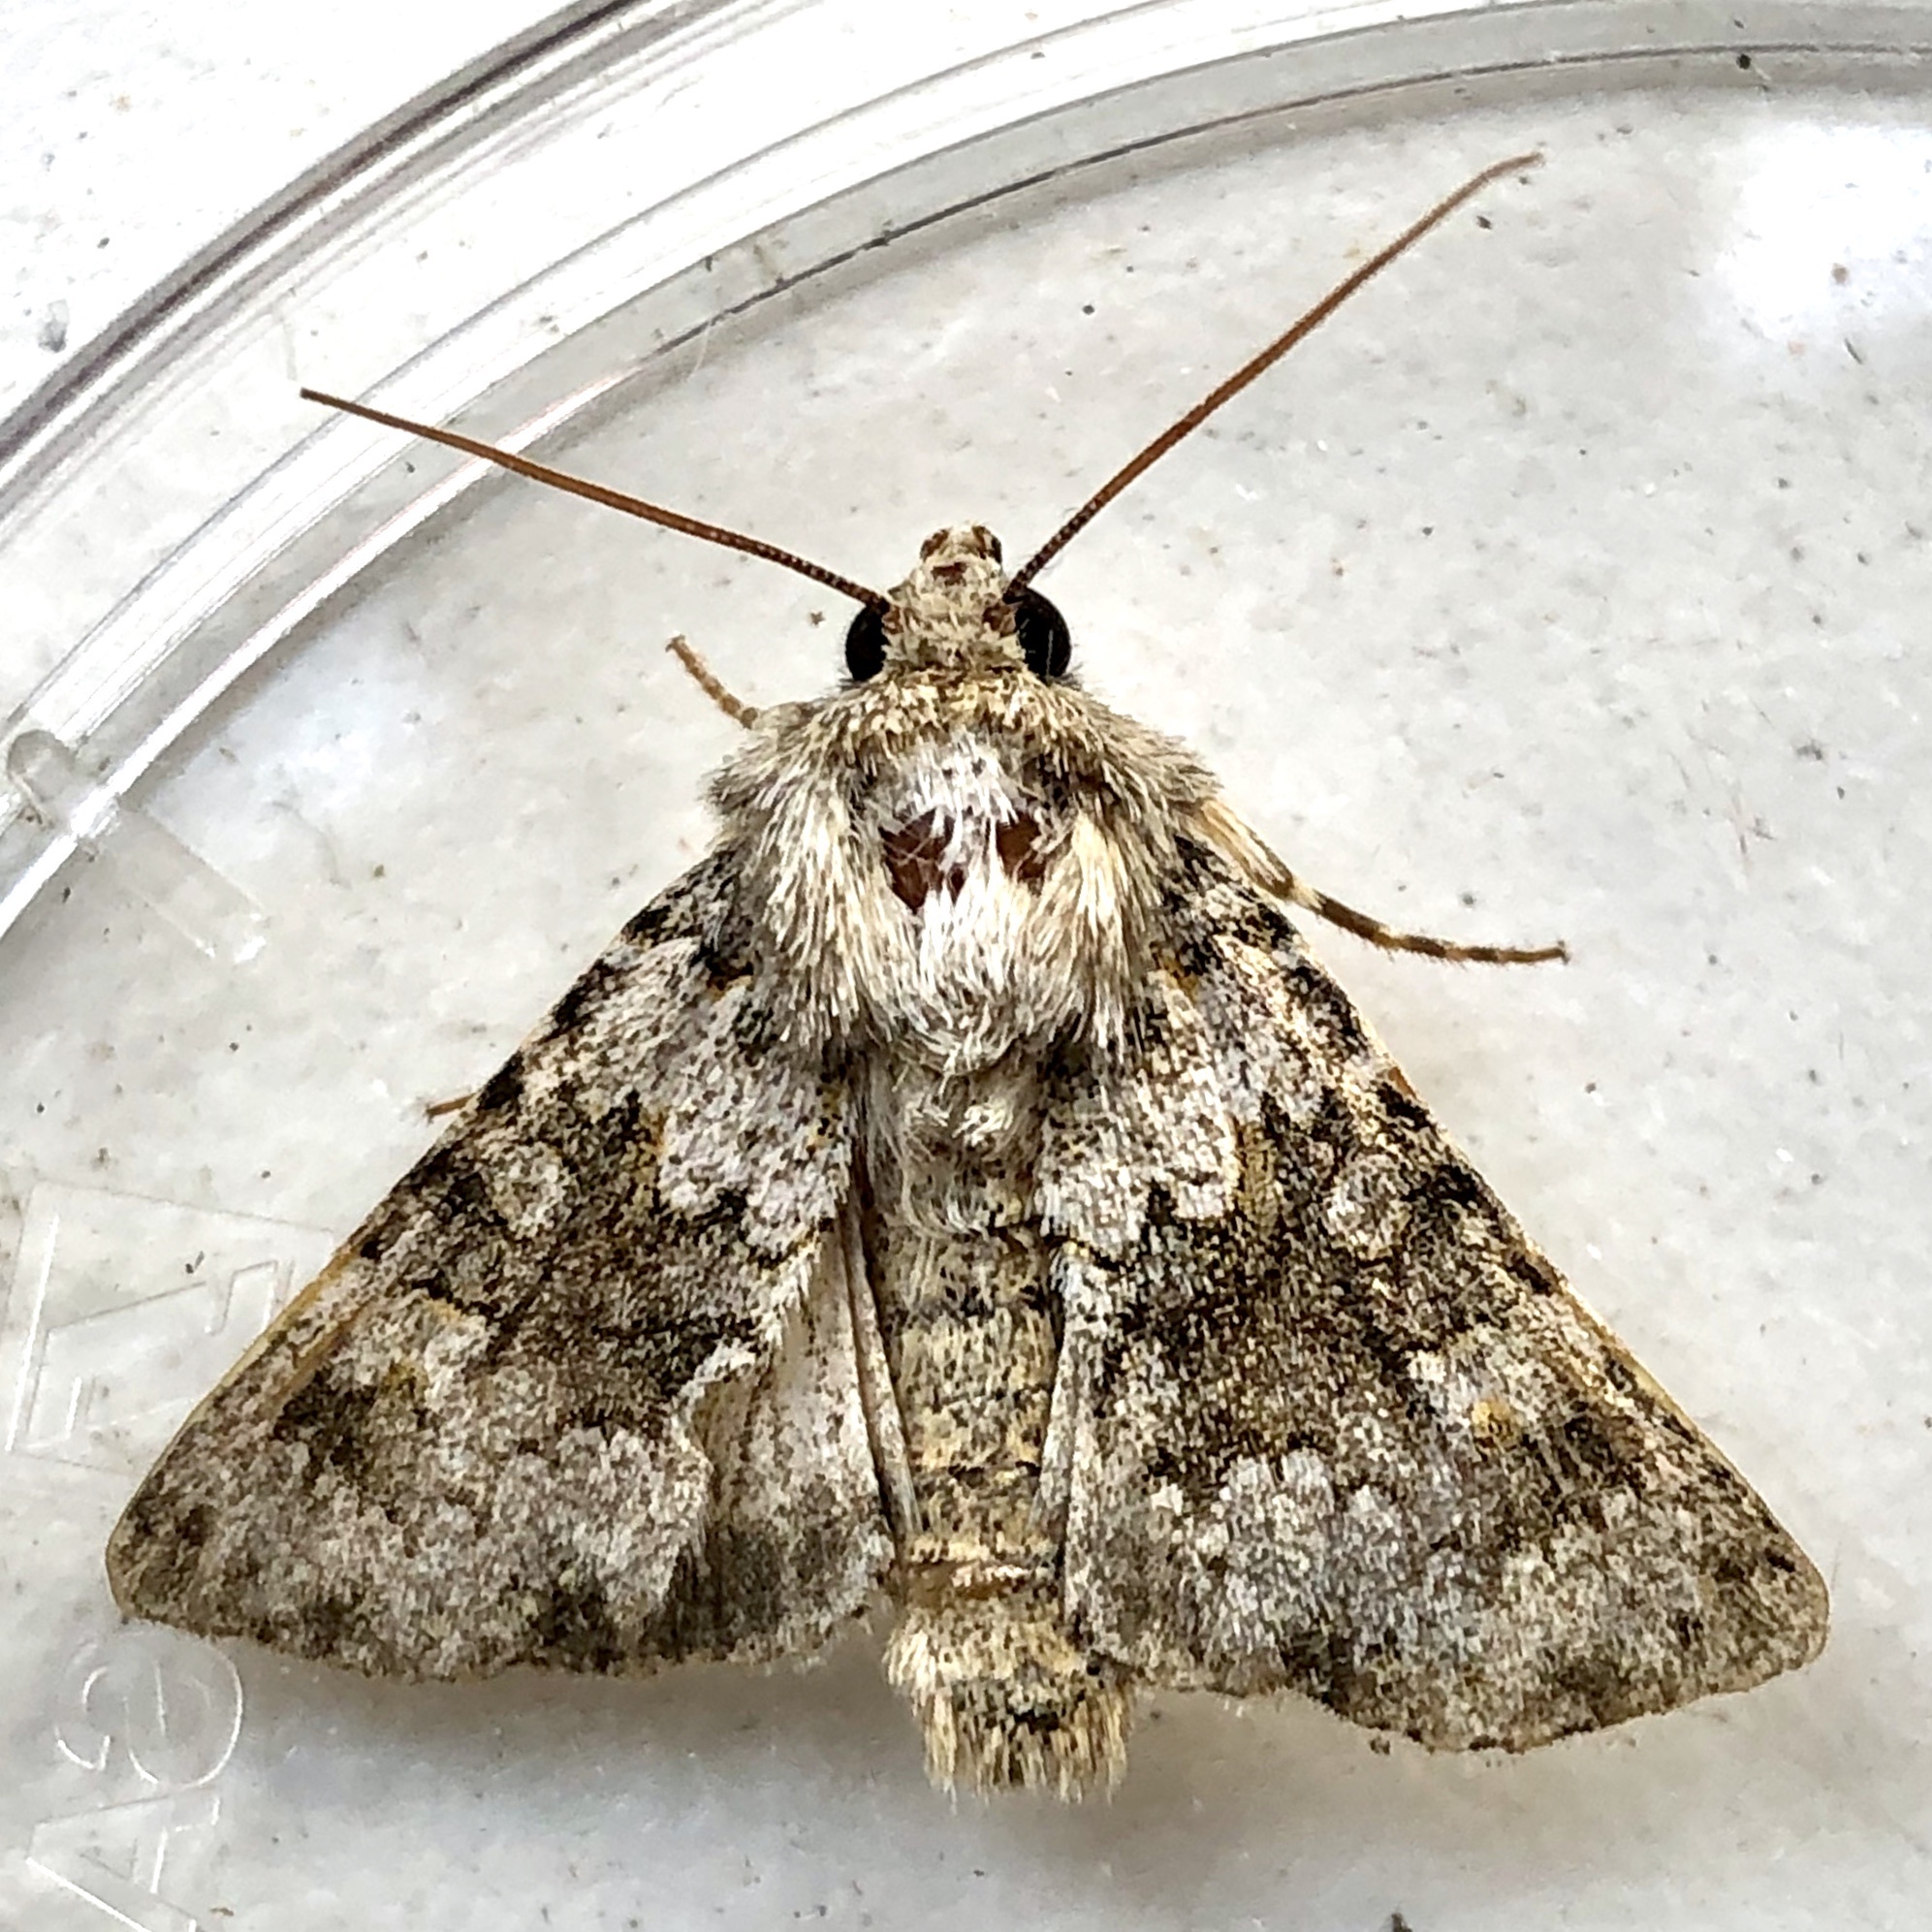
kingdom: Animalia
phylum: Arthropoda
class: Insecta
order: Lepidoptera
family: Noctuidae
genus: Hecatera
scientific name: Hecatera dysodea
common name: Small ranunculus
